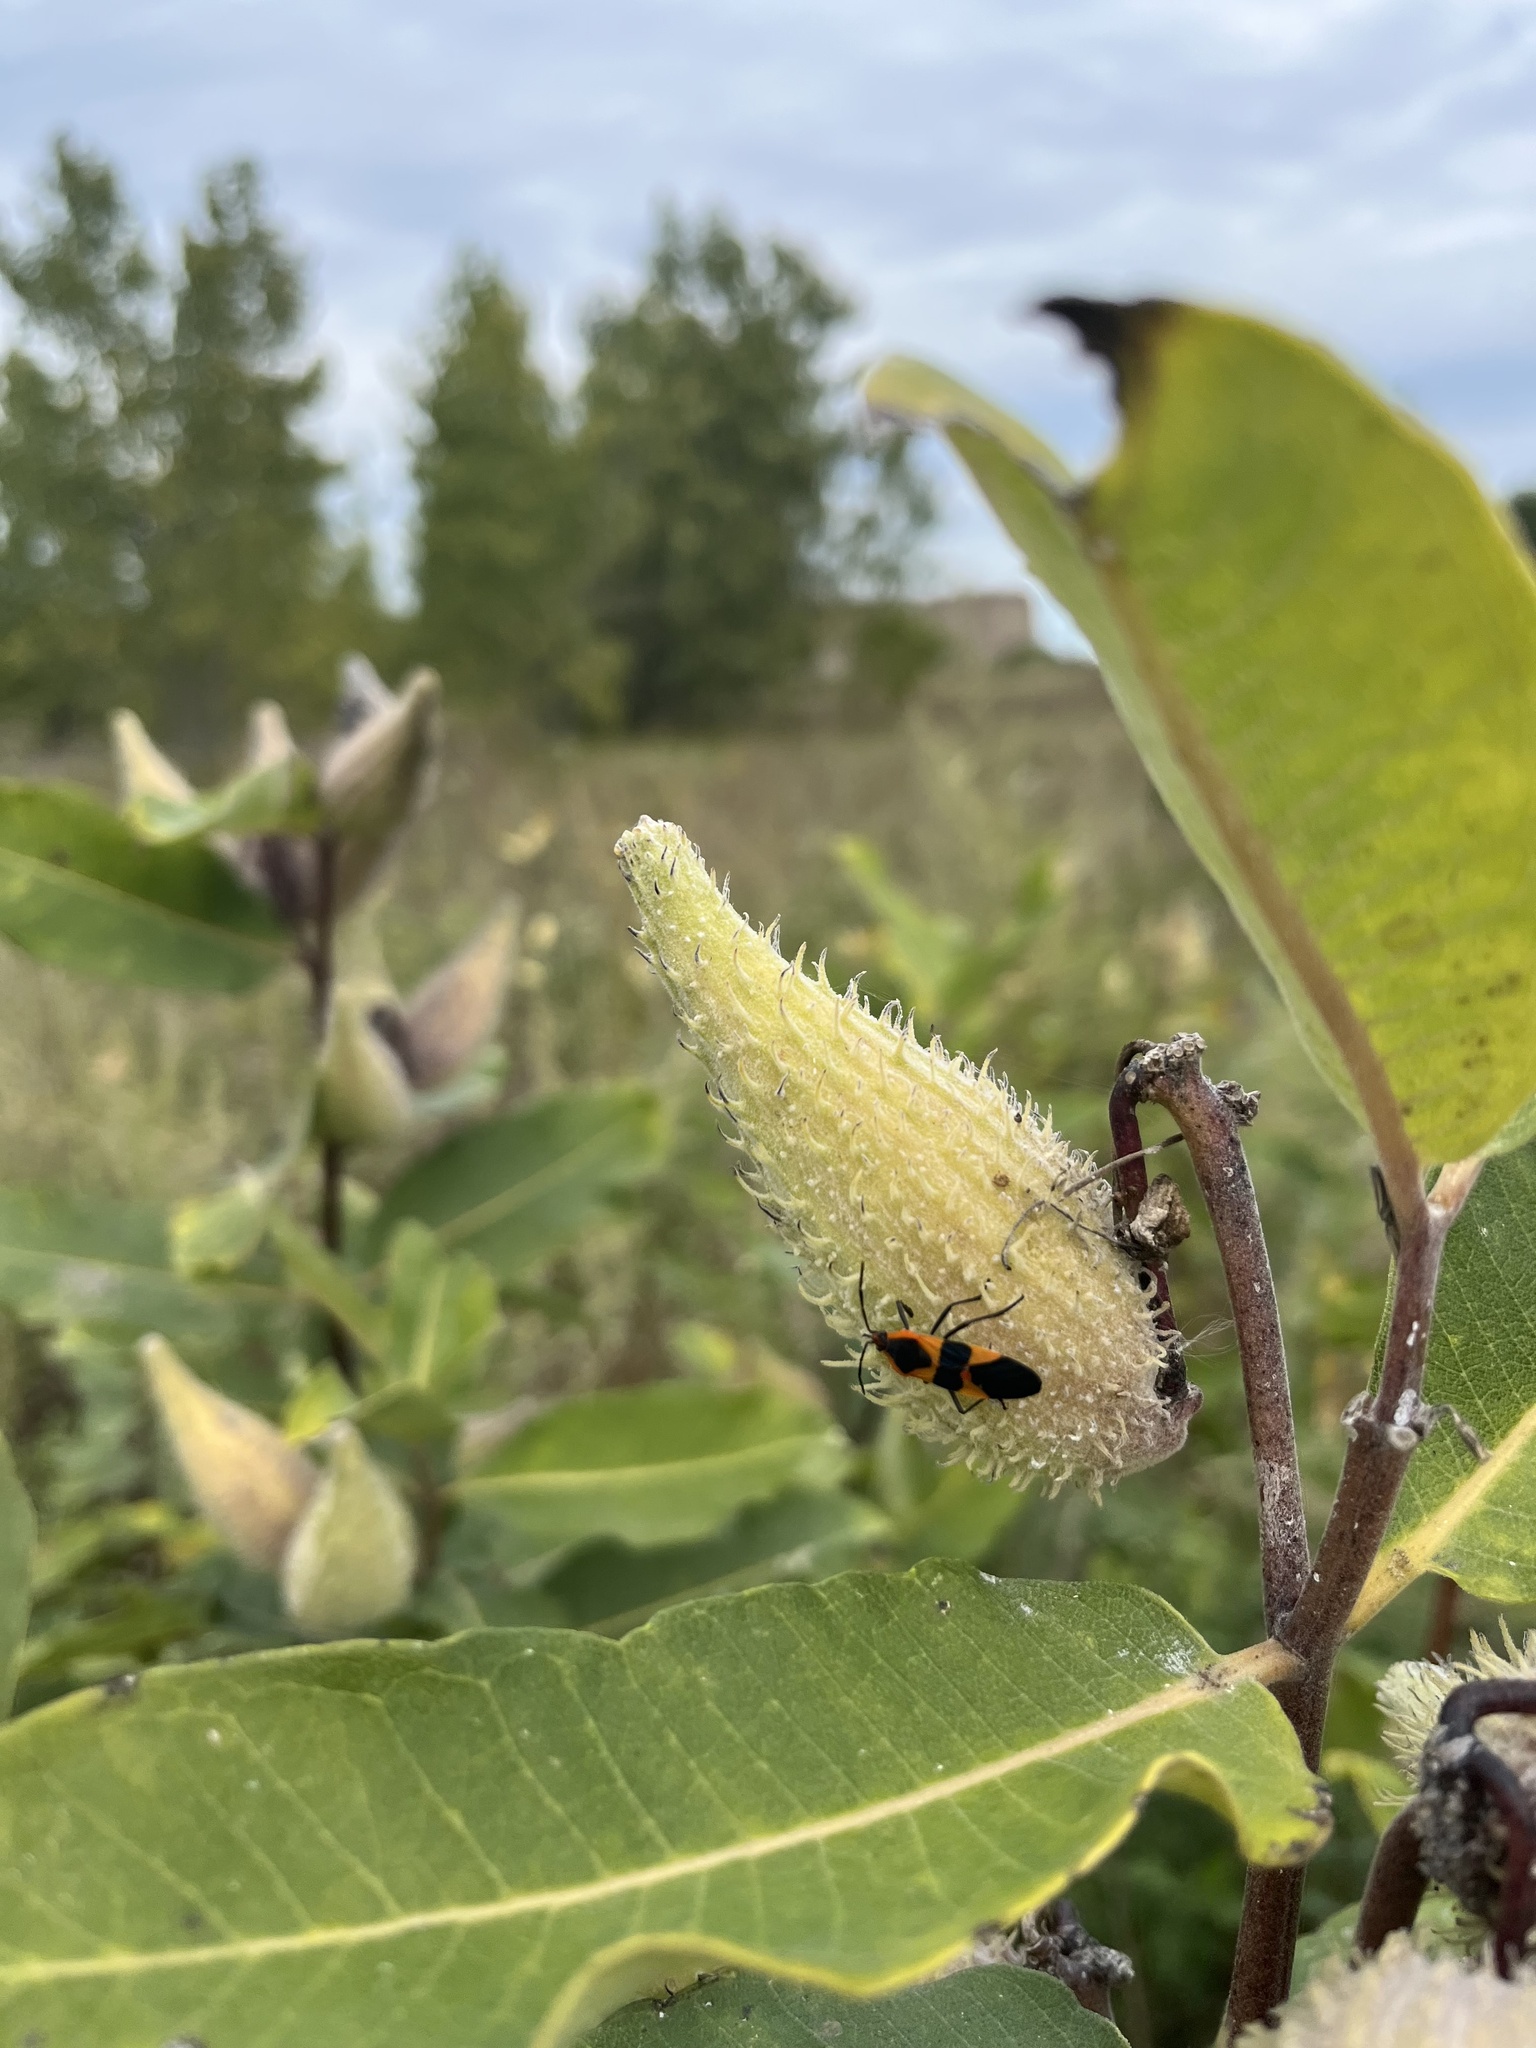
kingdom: Animalia
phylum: Arthropoda
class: Insecta
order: Hemiptera
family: Lygaeidae
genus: Oncopeltus
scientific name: Oncopeltus fasciatus
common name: Large milkweed bug
